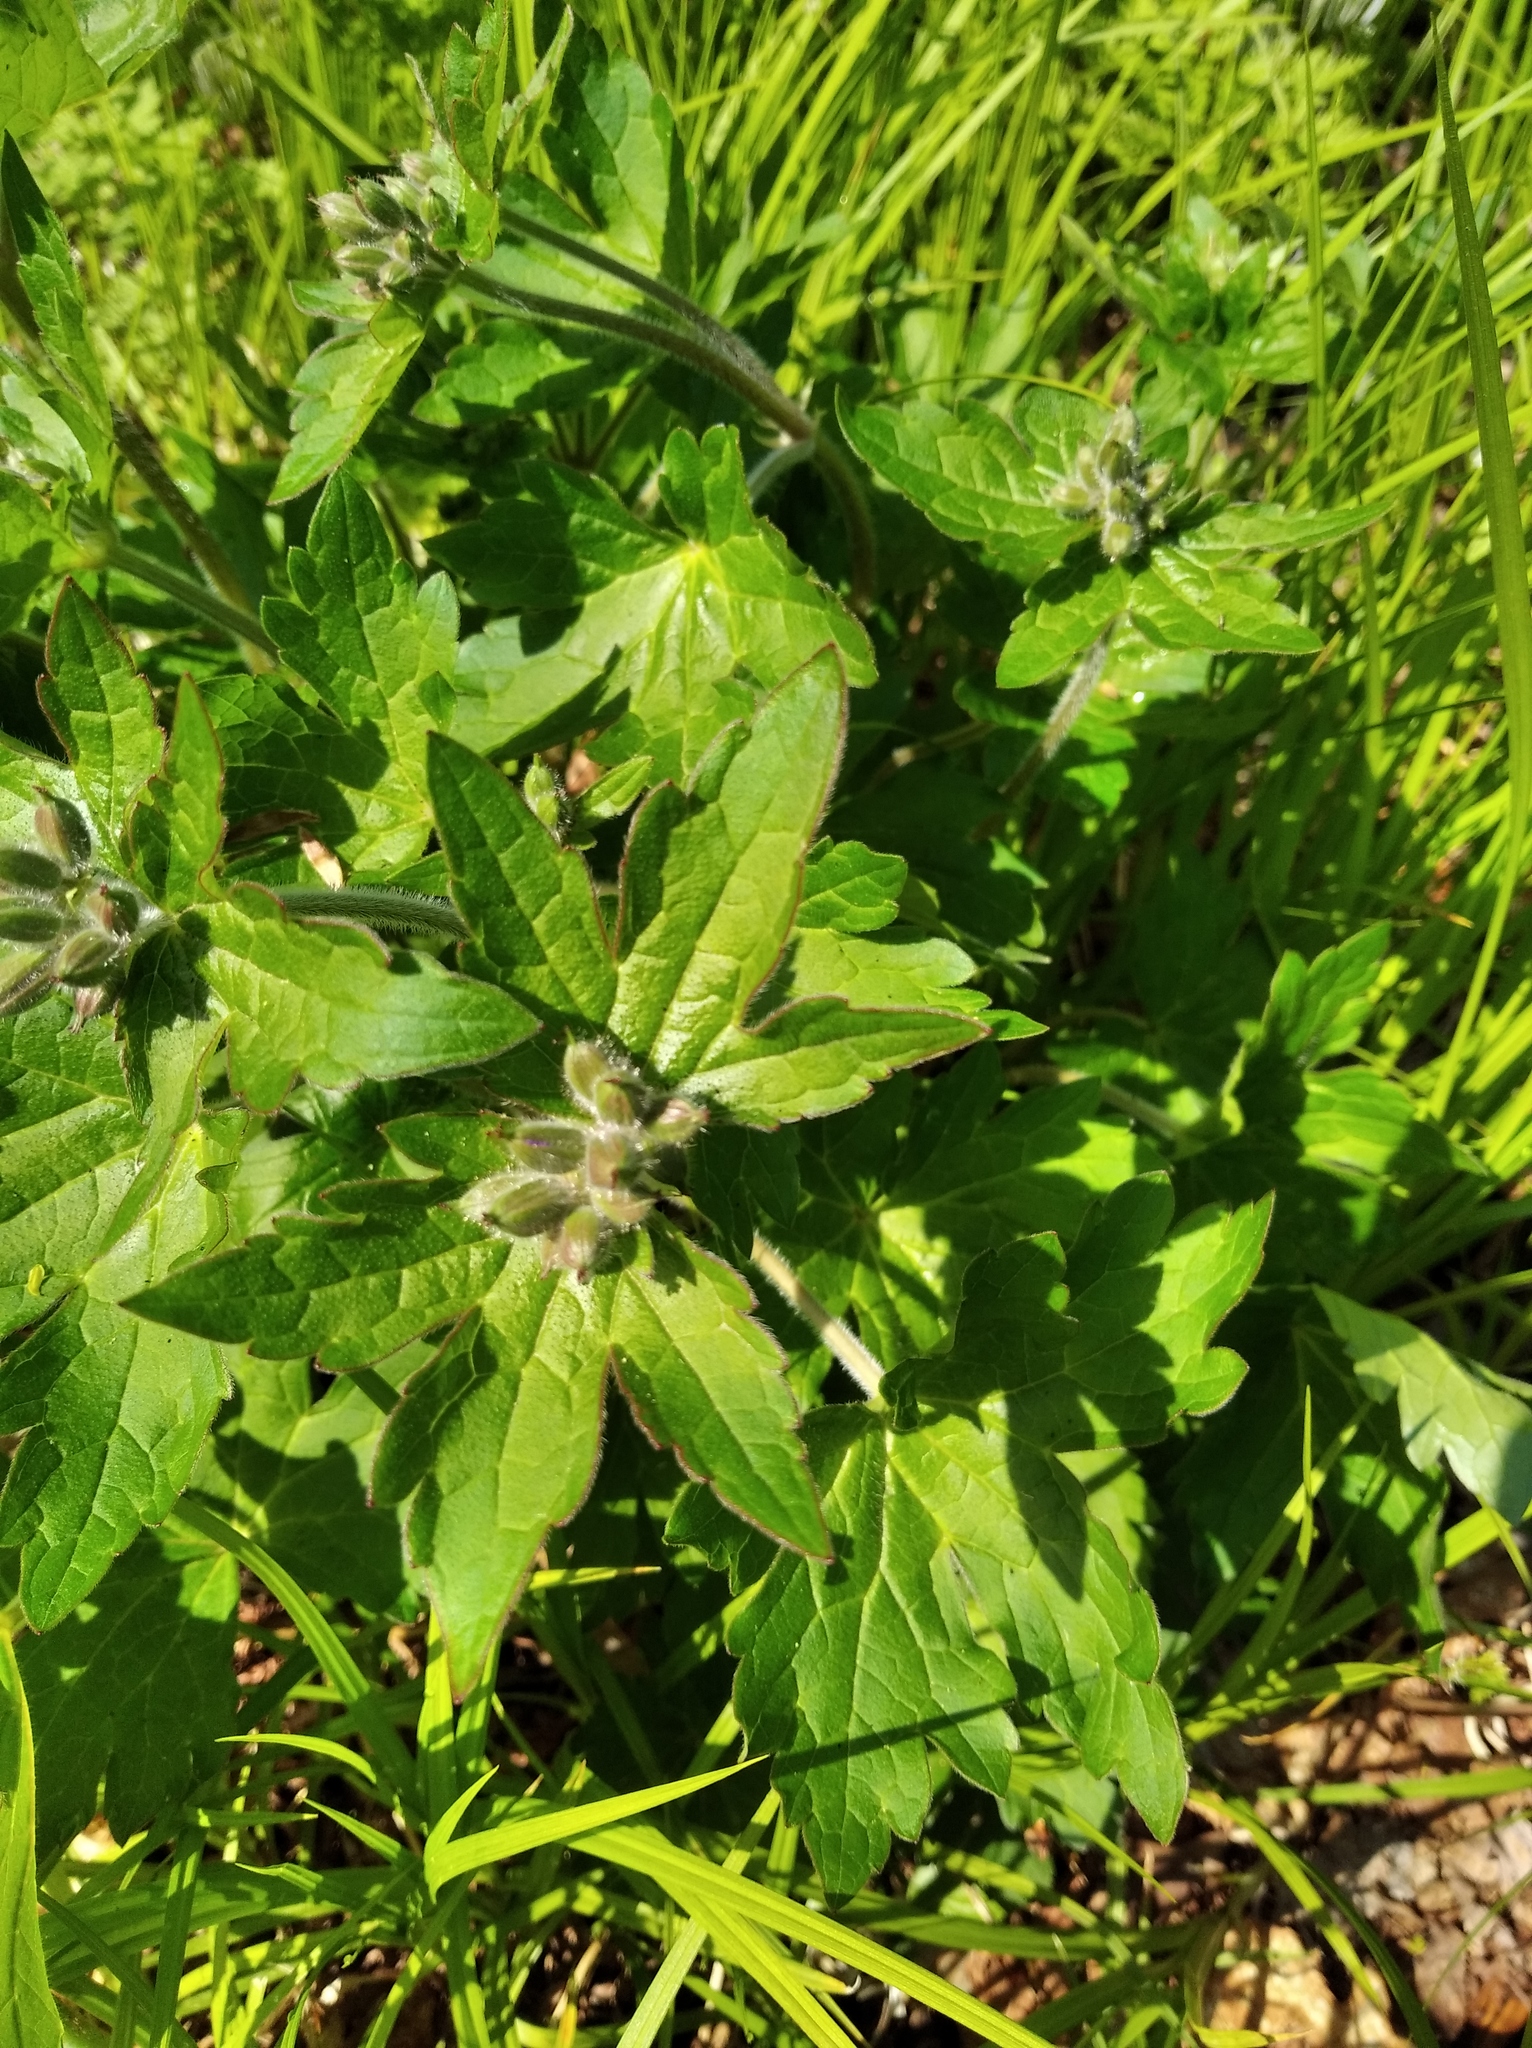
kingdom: Plantae
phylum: Tracheophyta
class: Magnoliopsida
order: Geraniales
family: Geraniaceae
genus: Geranium
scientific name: Geranium platyanthum
